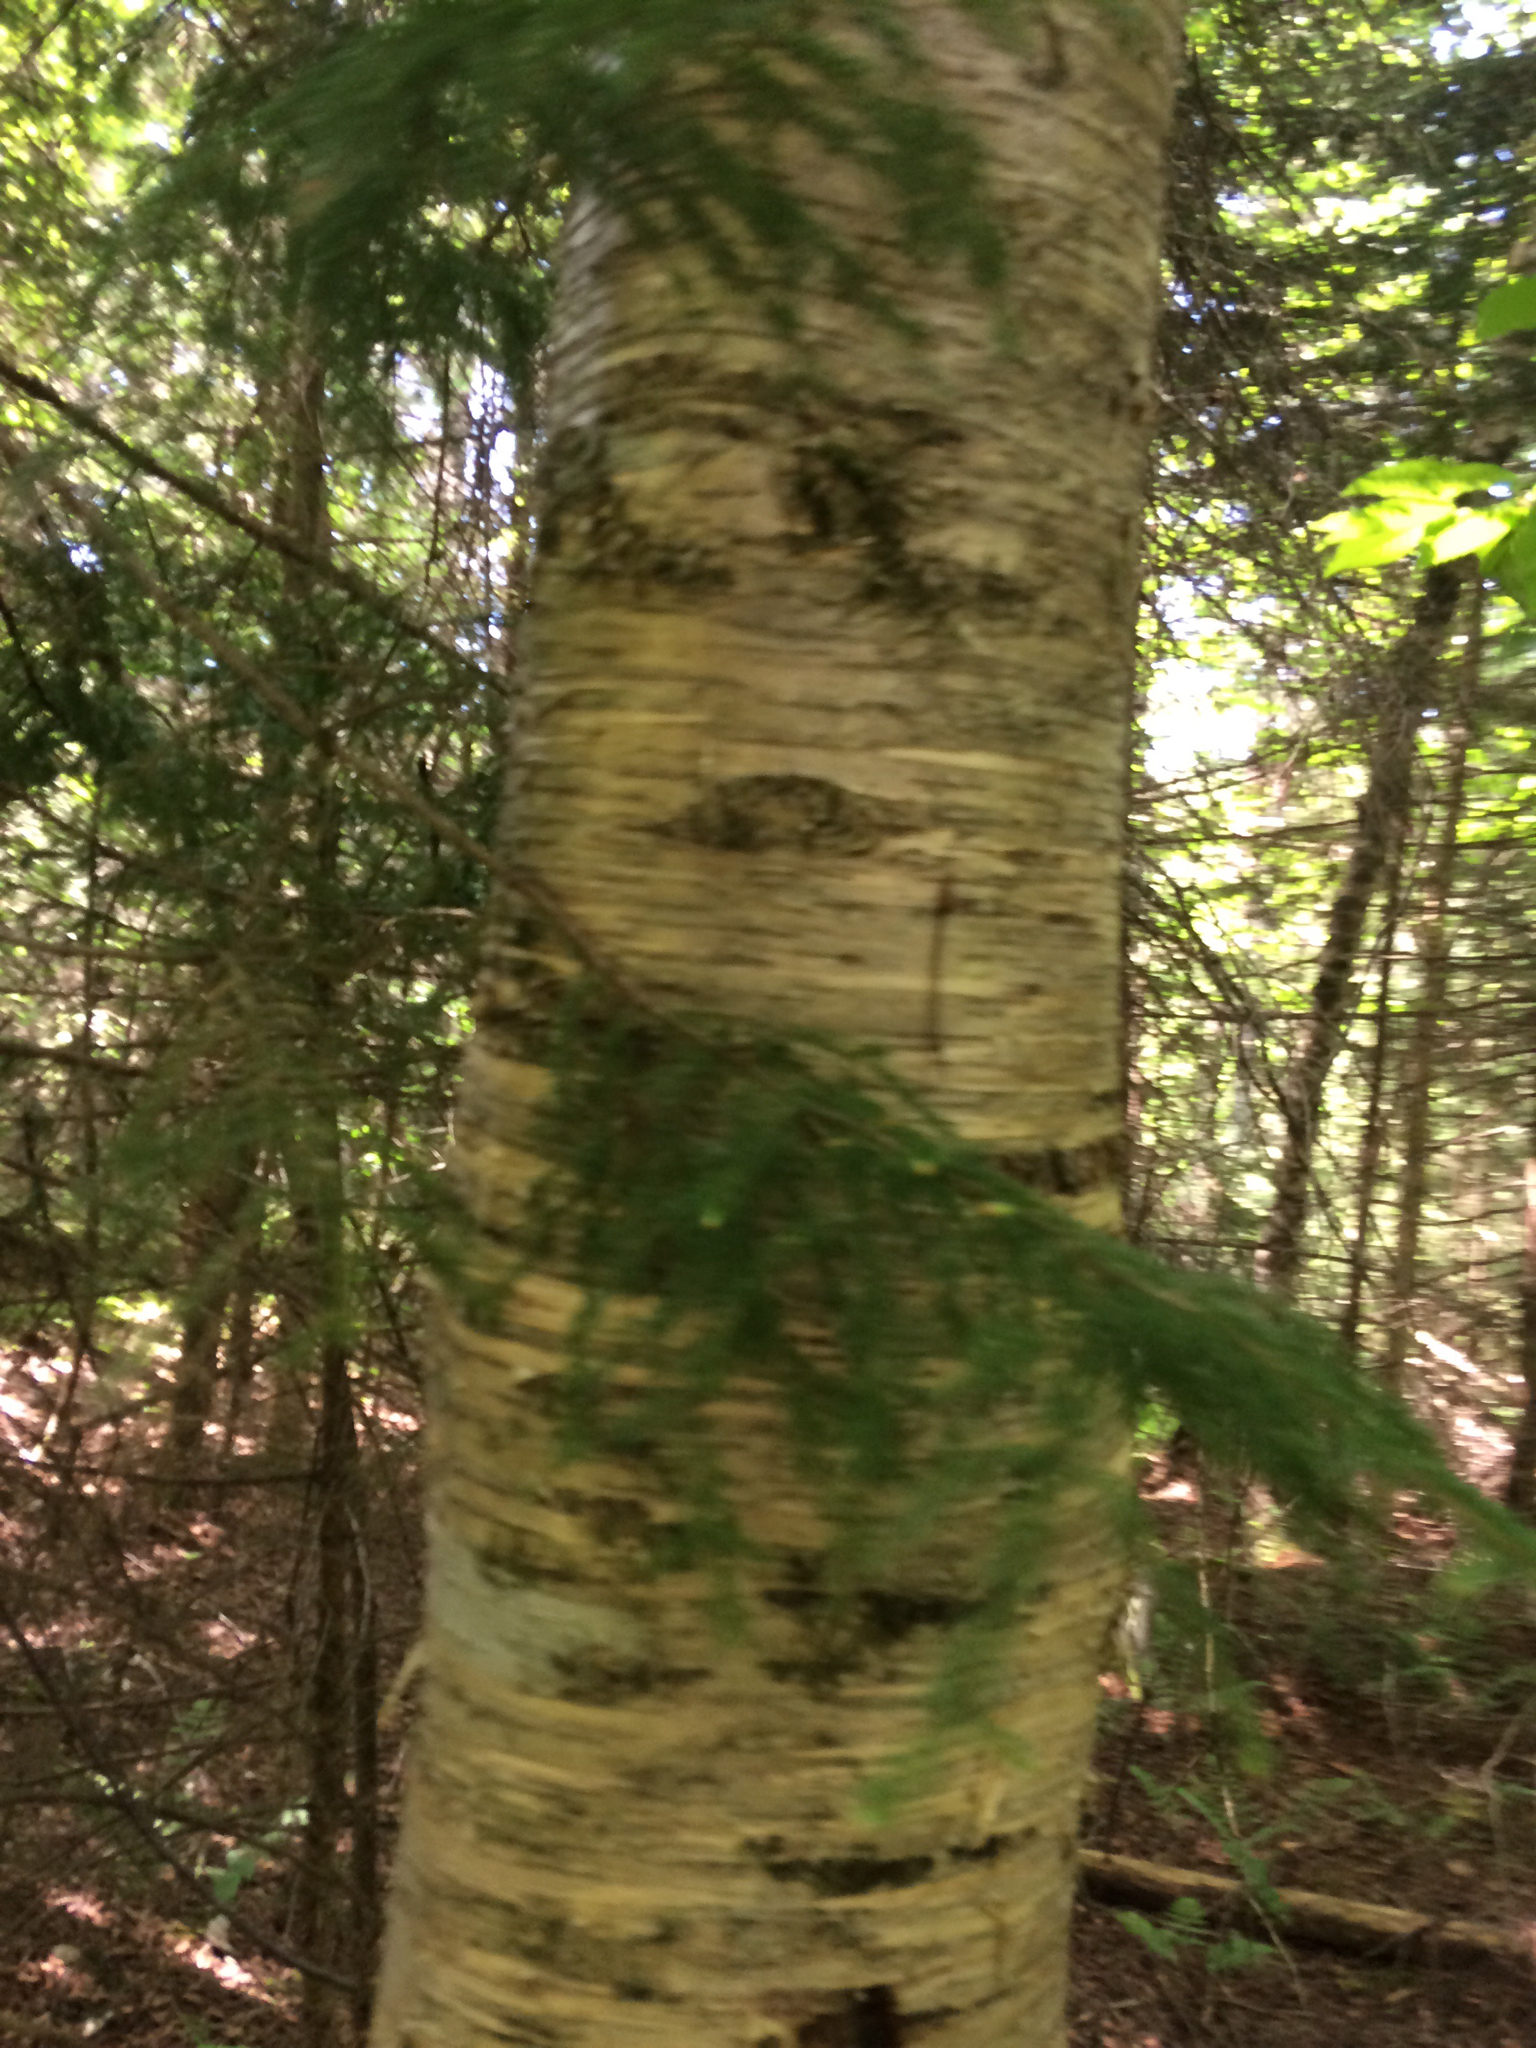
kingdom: Plantae
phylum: Tracheophyta
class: Magnoliopsida
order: Fagales
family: Betulaceae
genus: Betula
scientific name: Betula alleghaniensis
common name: Yellow birch
